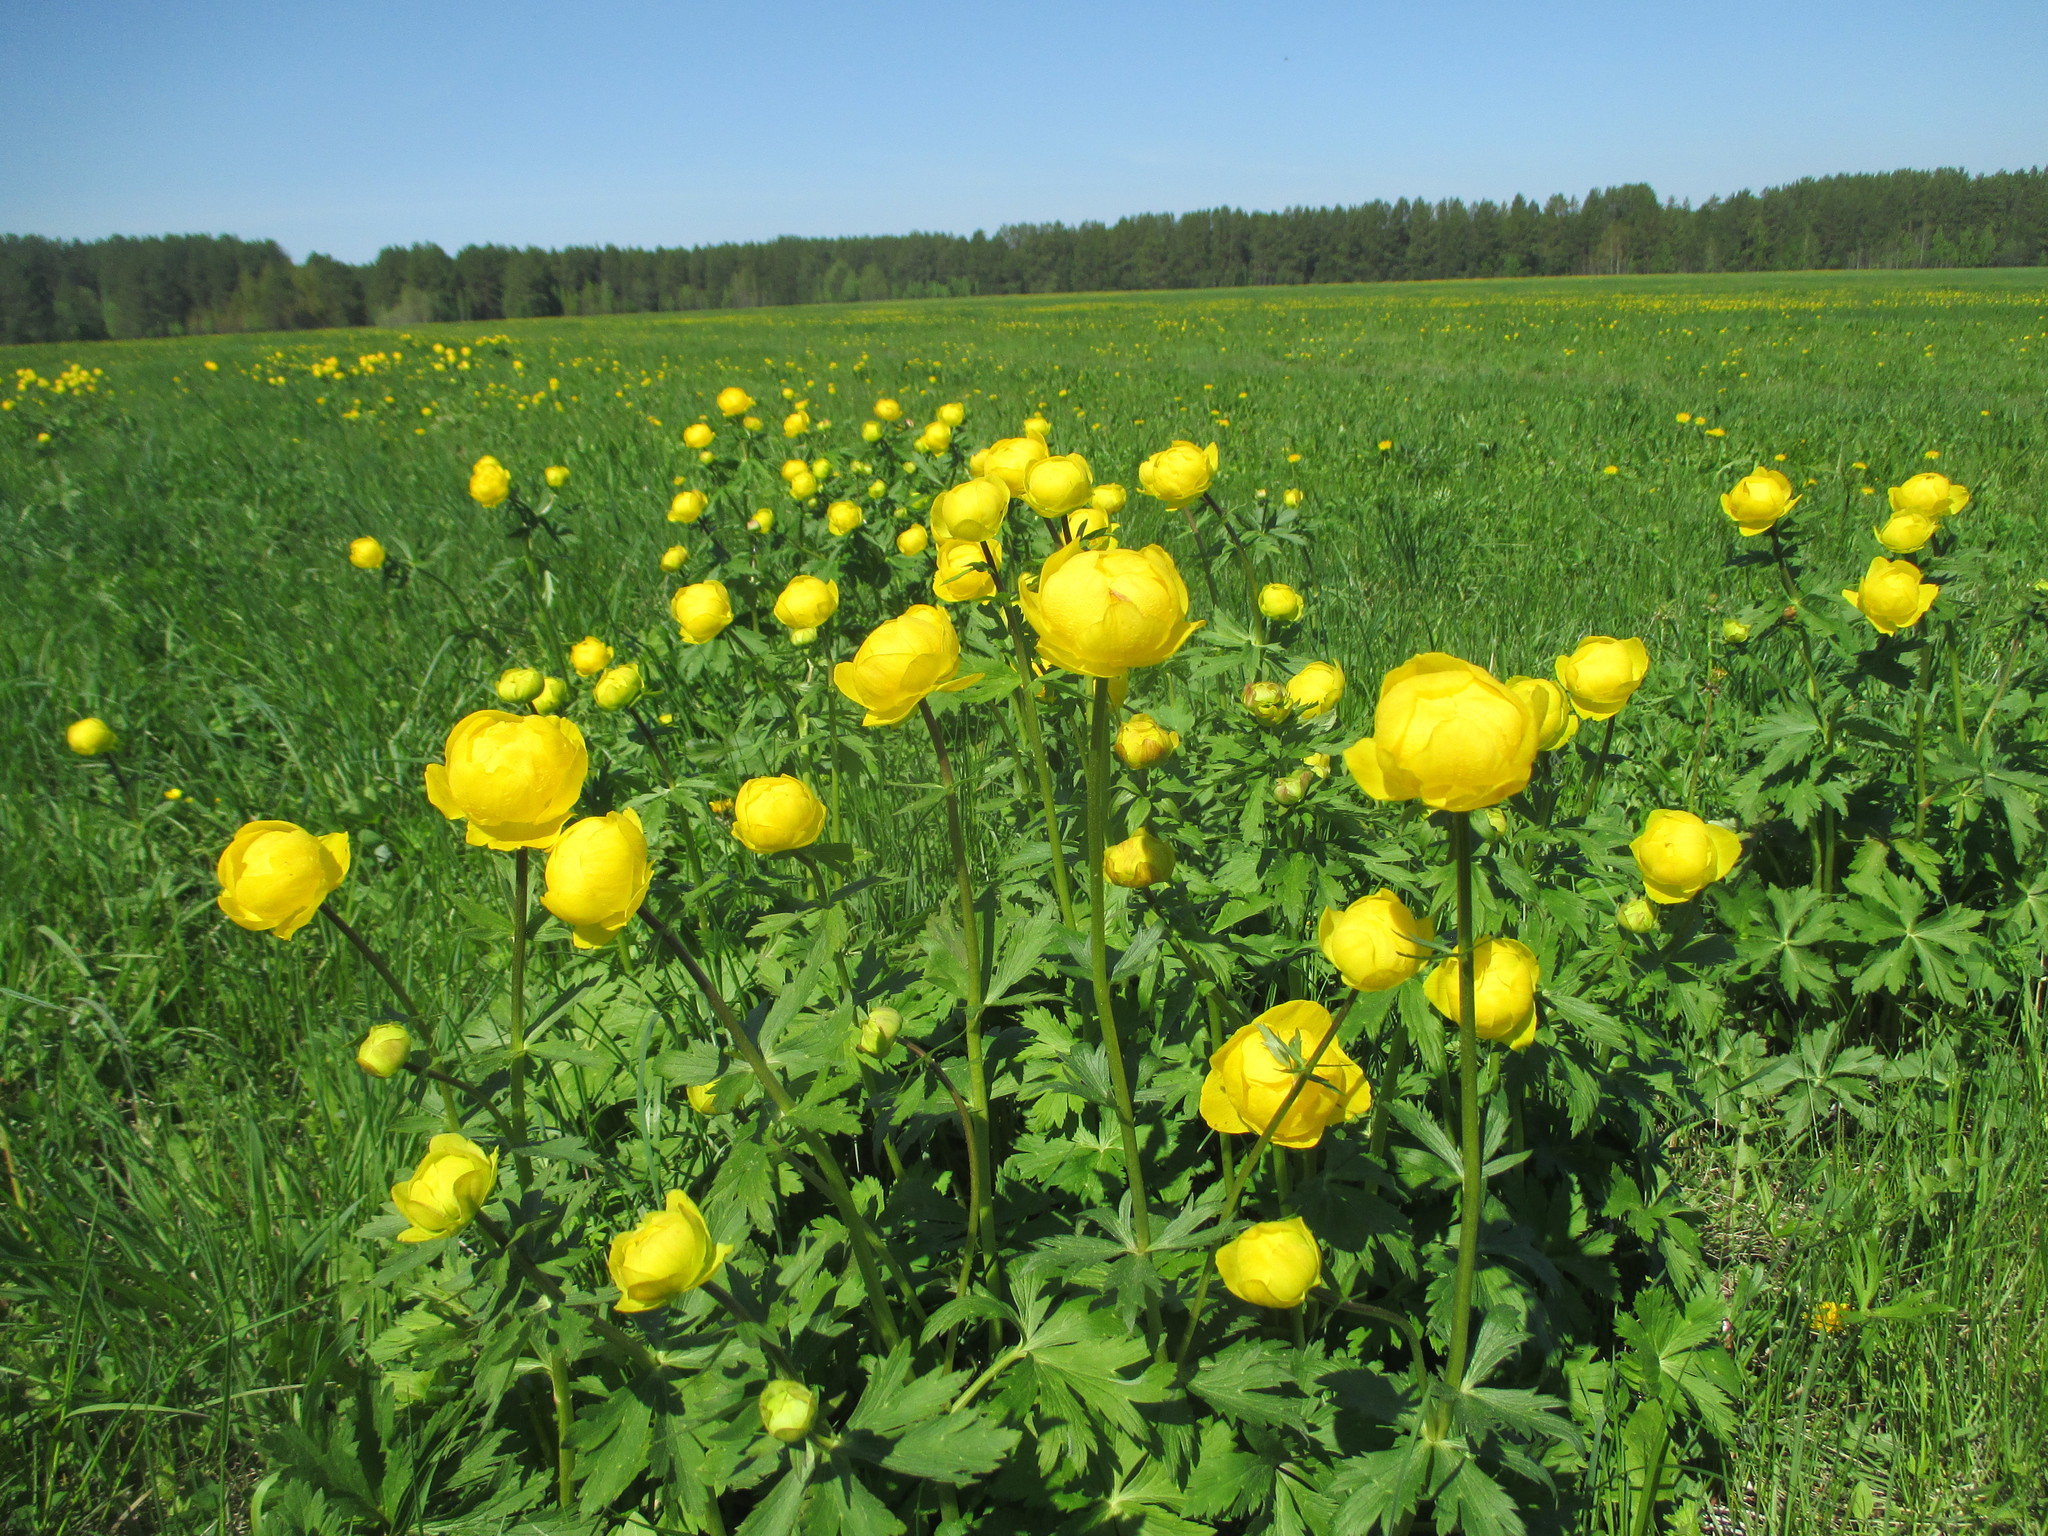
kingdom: Plantae
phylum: Tracheophyta
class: Magnoliopsida
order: Ranunculales
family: Ranunculaceae
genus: Trollius
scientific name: Trollius europaeus
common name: European globeflower
